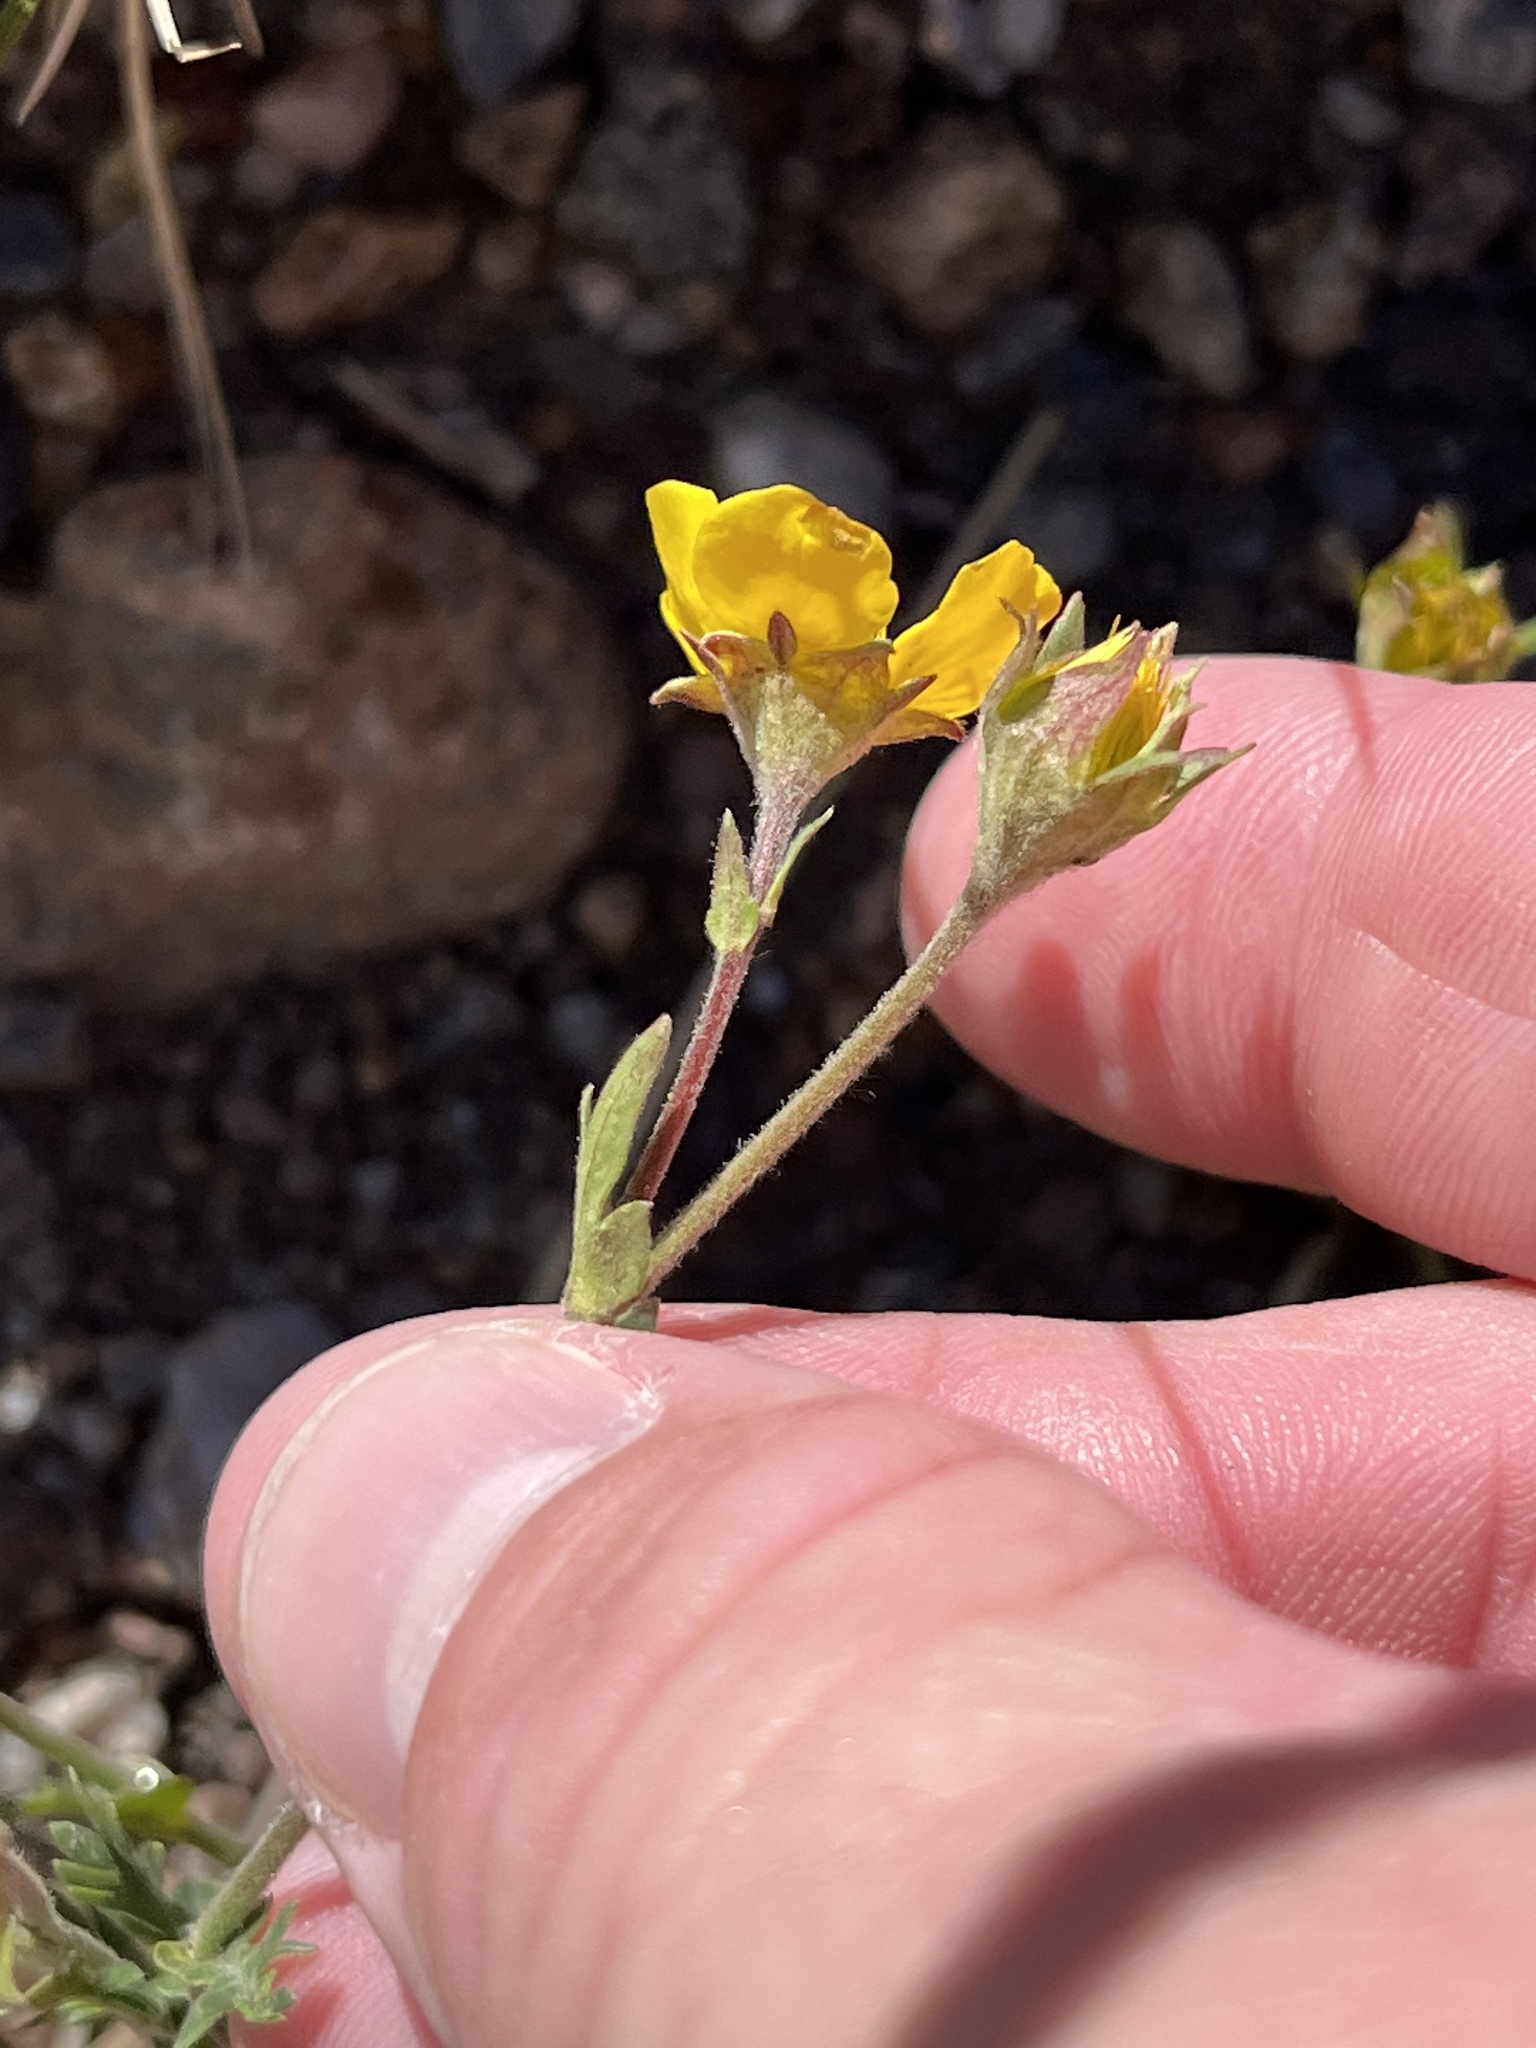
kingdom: Plantae
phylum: Tracheophyta
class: Magnoliopsida
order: Rosales
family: Rosaceae
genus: Geum
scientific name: Geum rossii
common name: Alpine avens
